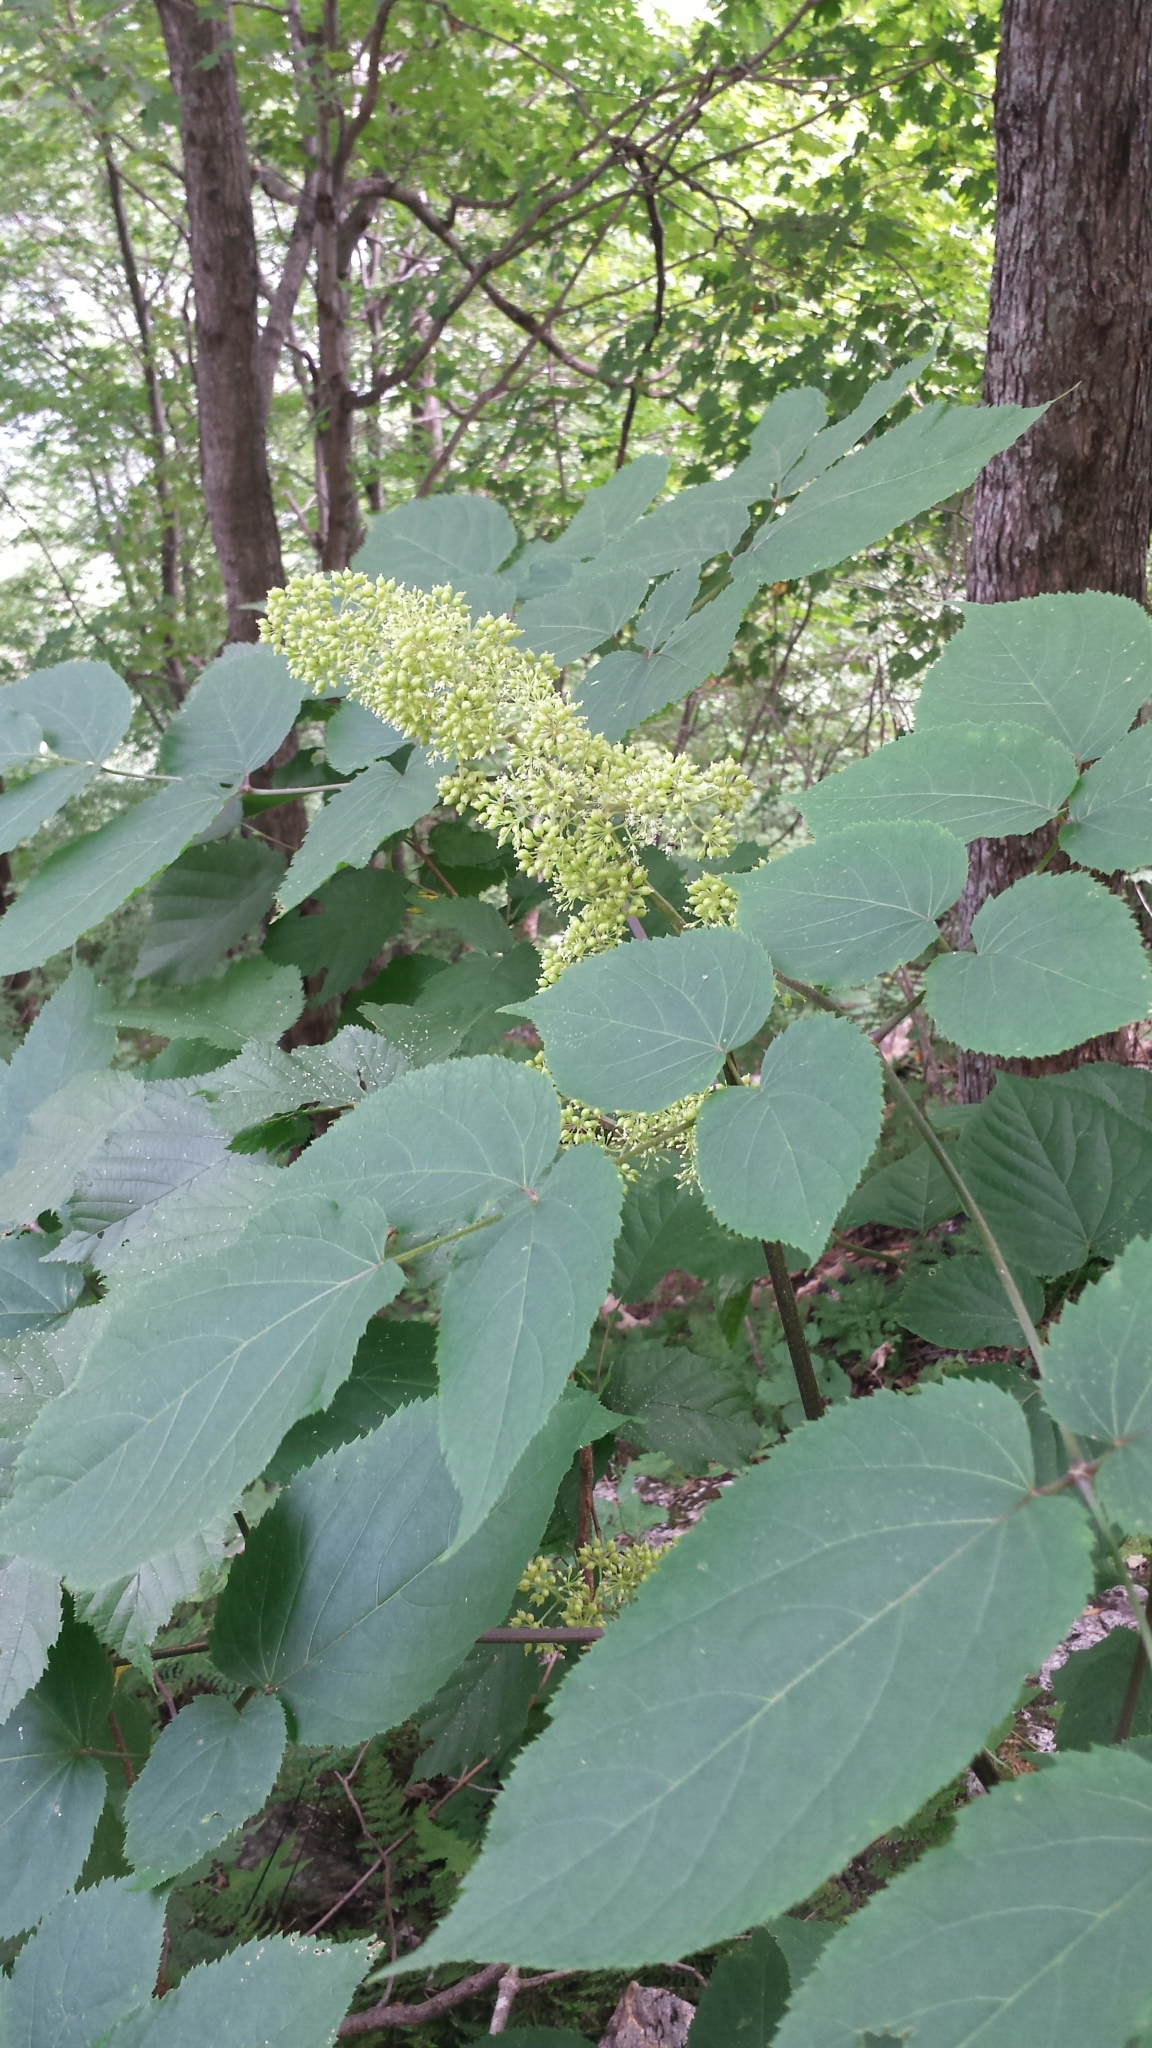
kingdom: Plantae
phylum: Tracheophyta
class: Magnoliopsida
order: Apiales
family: Araliaceae
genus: Aralia
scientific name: Aralia racemosa
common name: American-spikenard
